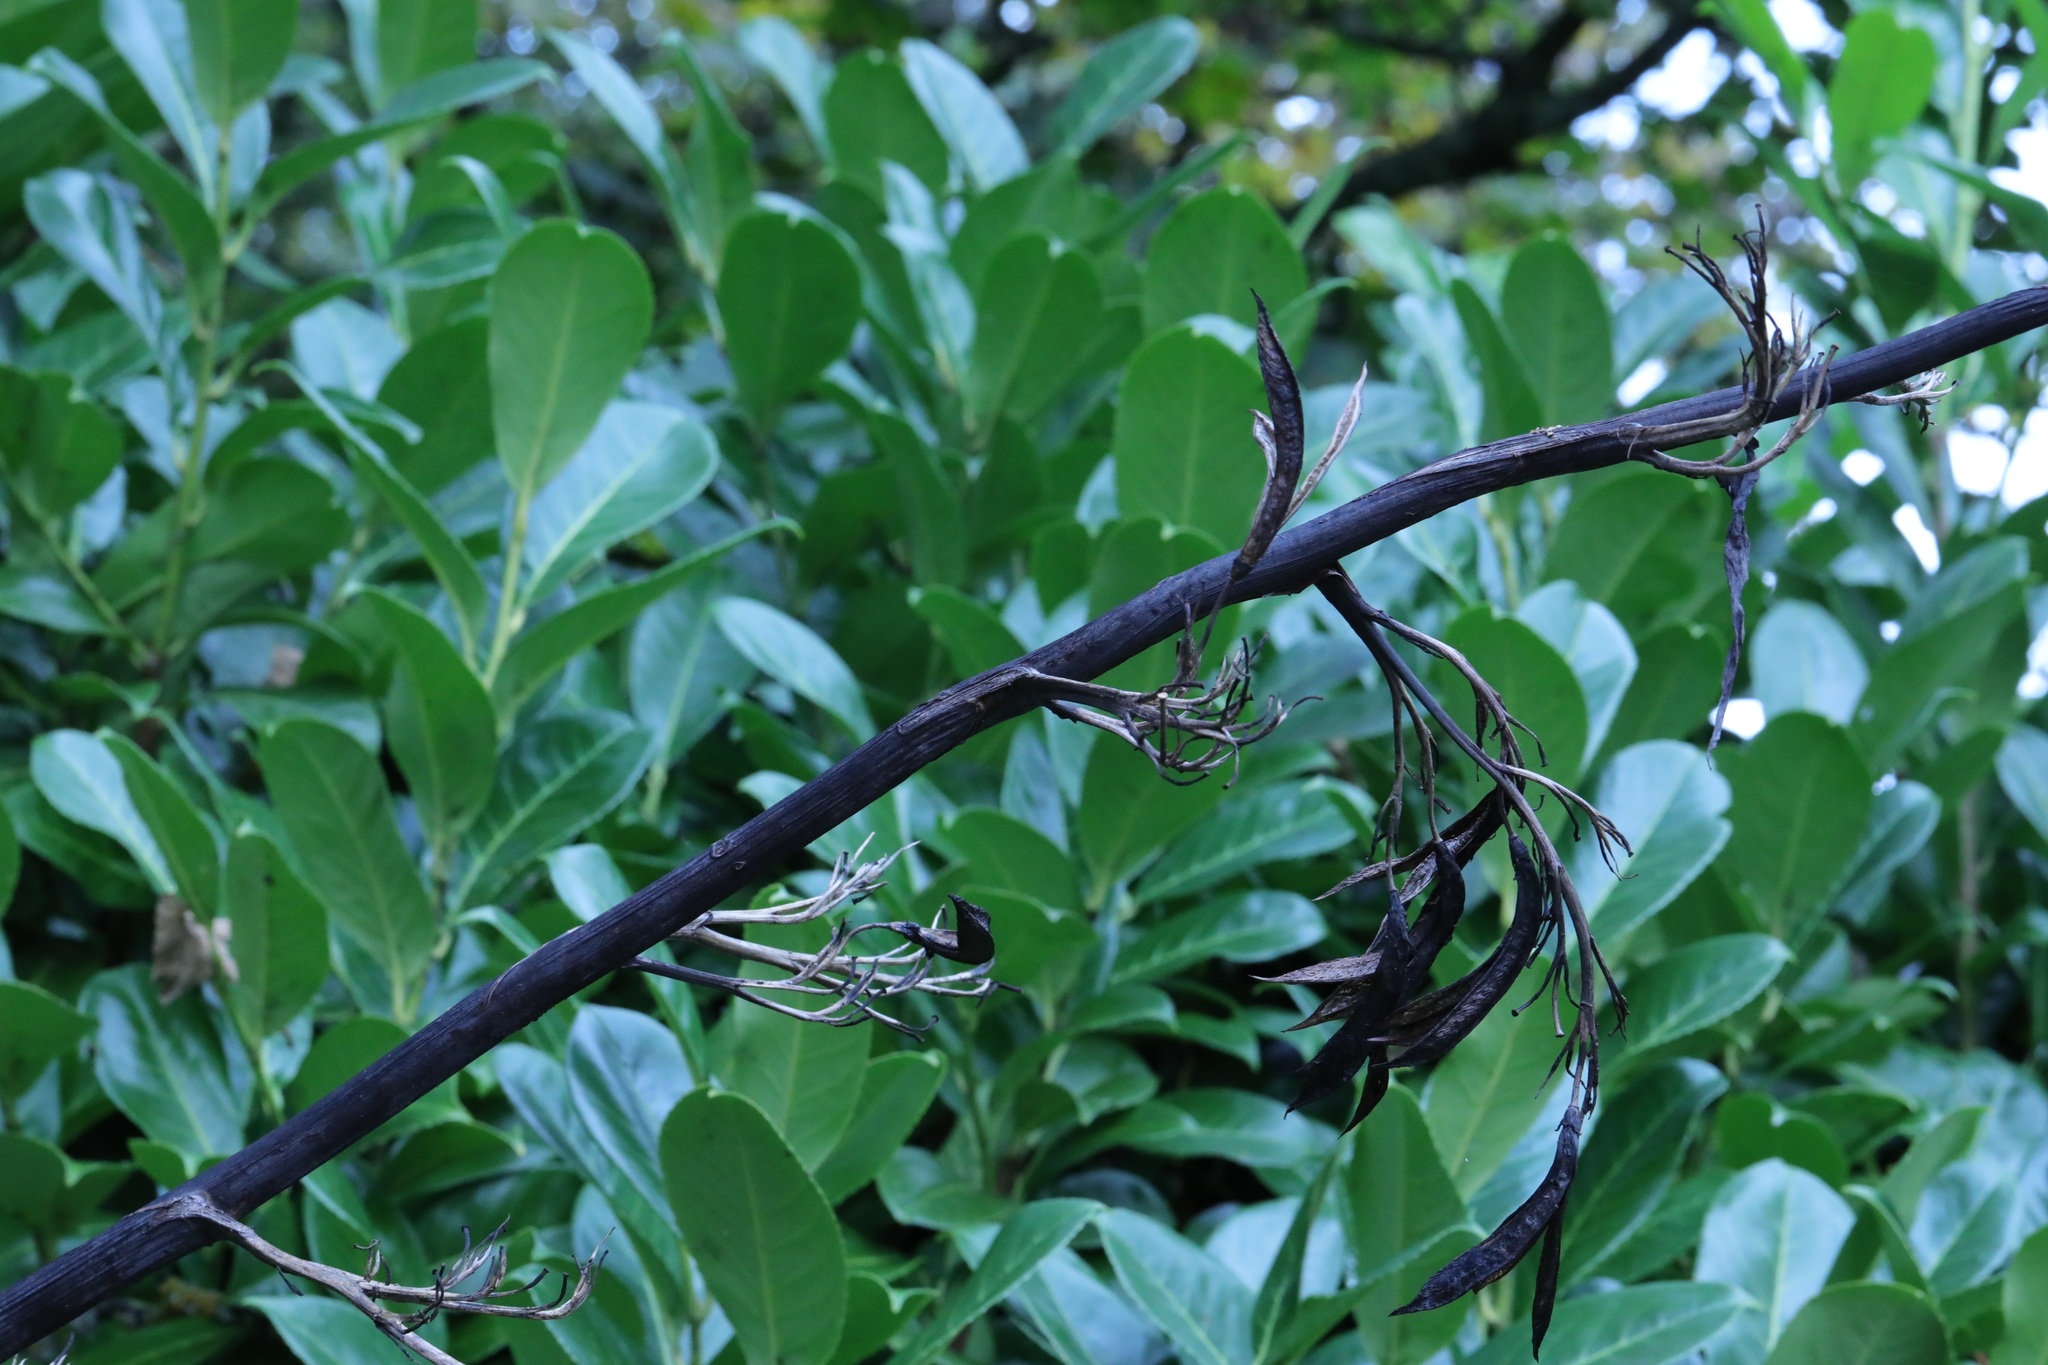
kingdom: Plantae
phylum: Tracheophyta
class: Liliopsida
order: Asparagales
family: Asphodelaceae
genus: Phormium
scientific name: Phormium tenax
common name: New zealand flax
